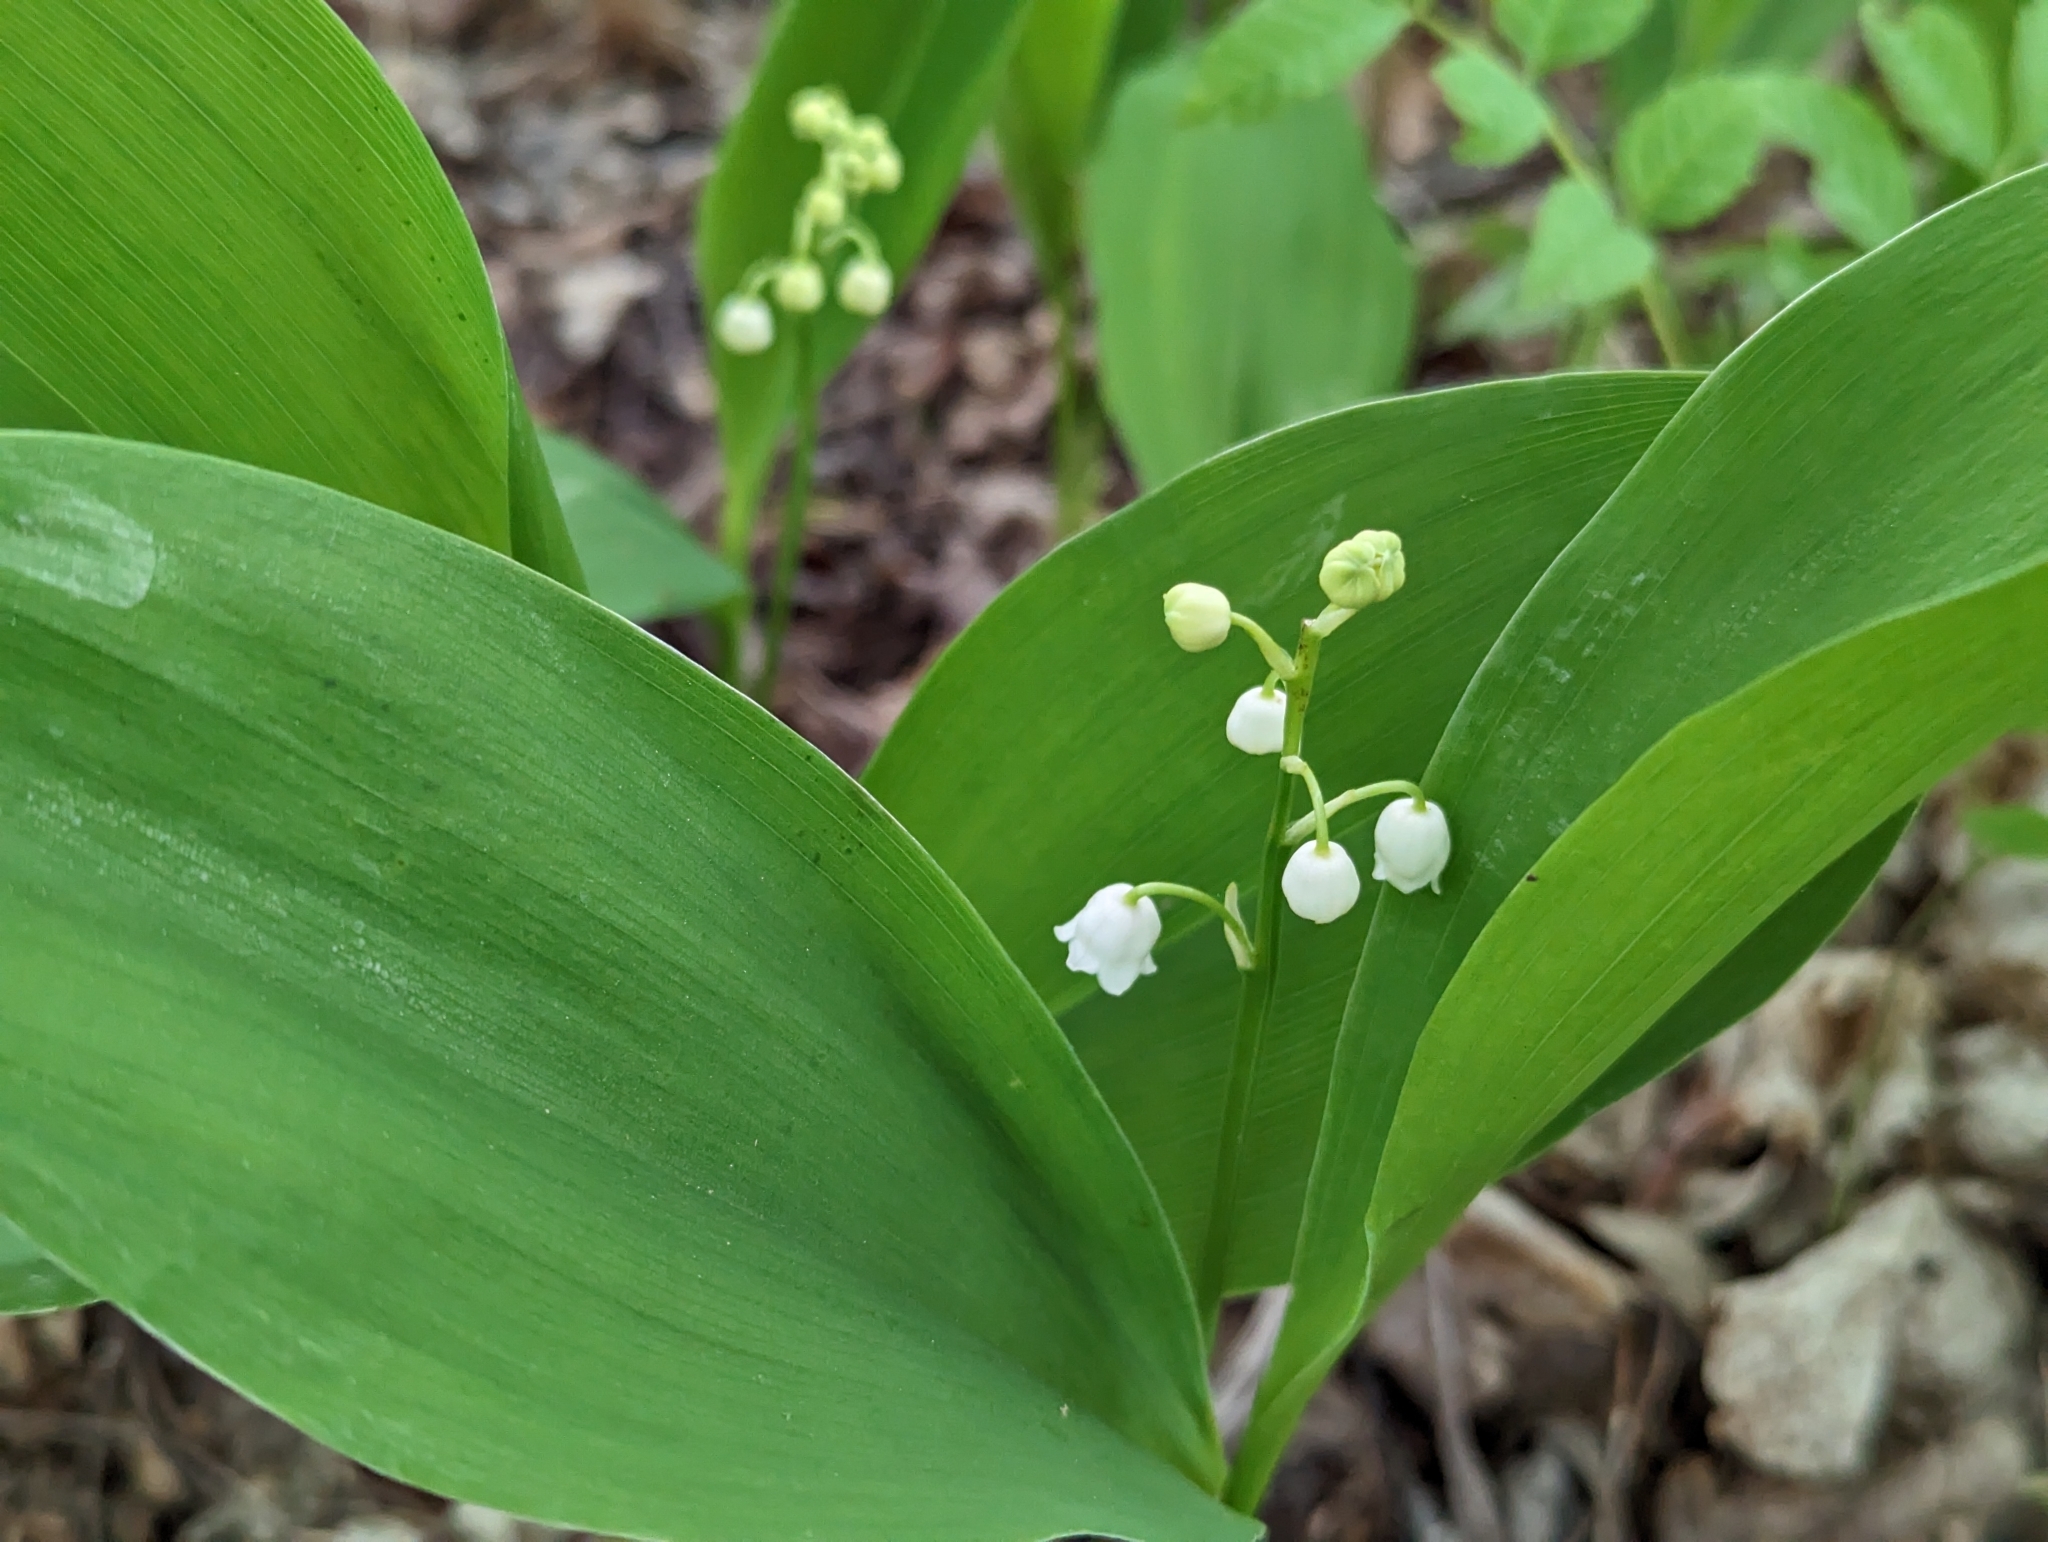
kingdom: Plantae
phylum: Tracheophyta
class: Liliopsida
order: Asparagales
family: Asparagaceae
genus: Convallaria
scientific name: Convallaria majalis
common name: Lily-of-the-valley
